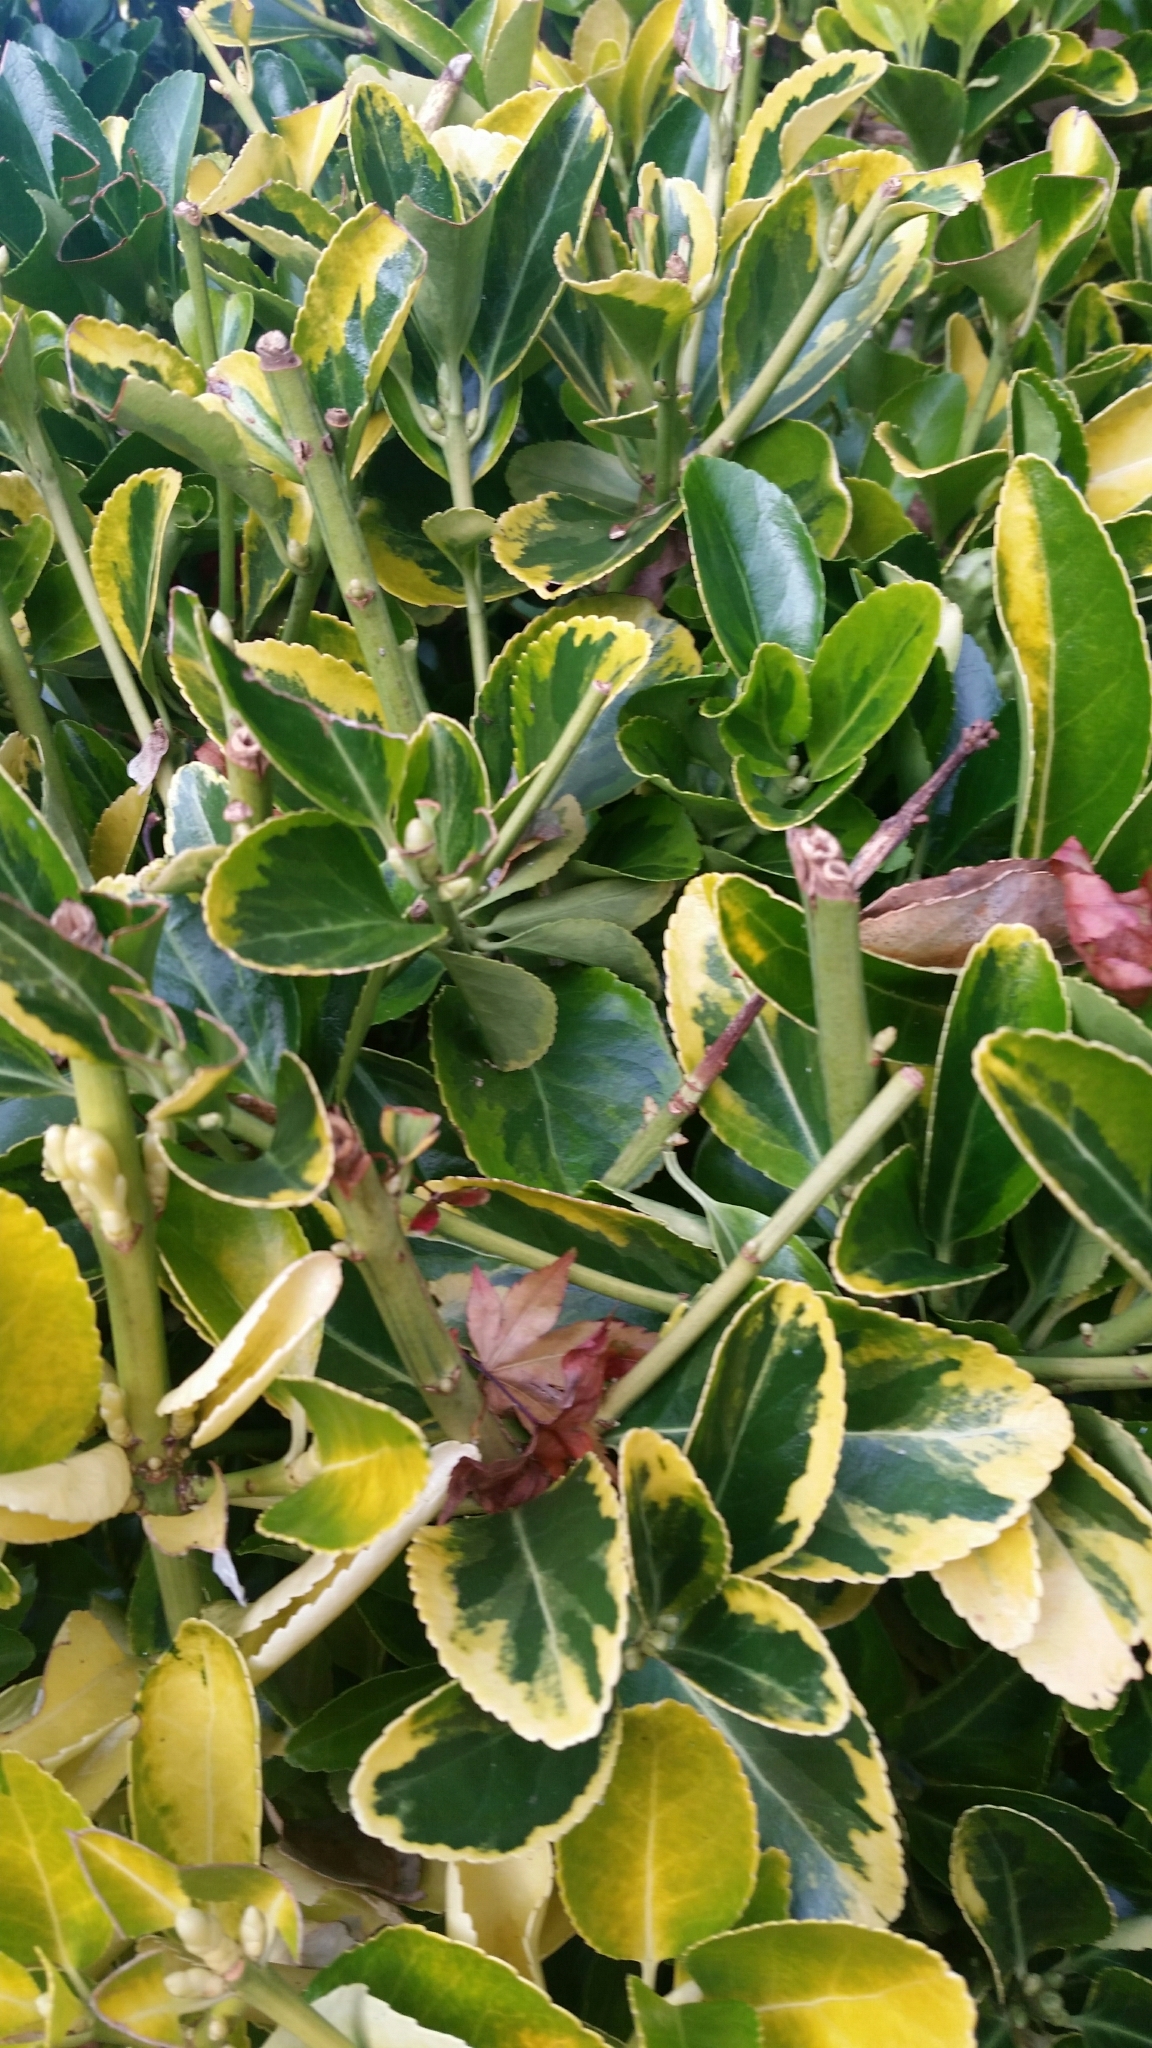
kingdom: Plantae
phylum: Tracheophyta
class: Magnoliopsida
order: Celastrales
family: Celastraceae
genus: Euonymus
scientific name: Euonymus japonicus
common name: Japanese spindletree
